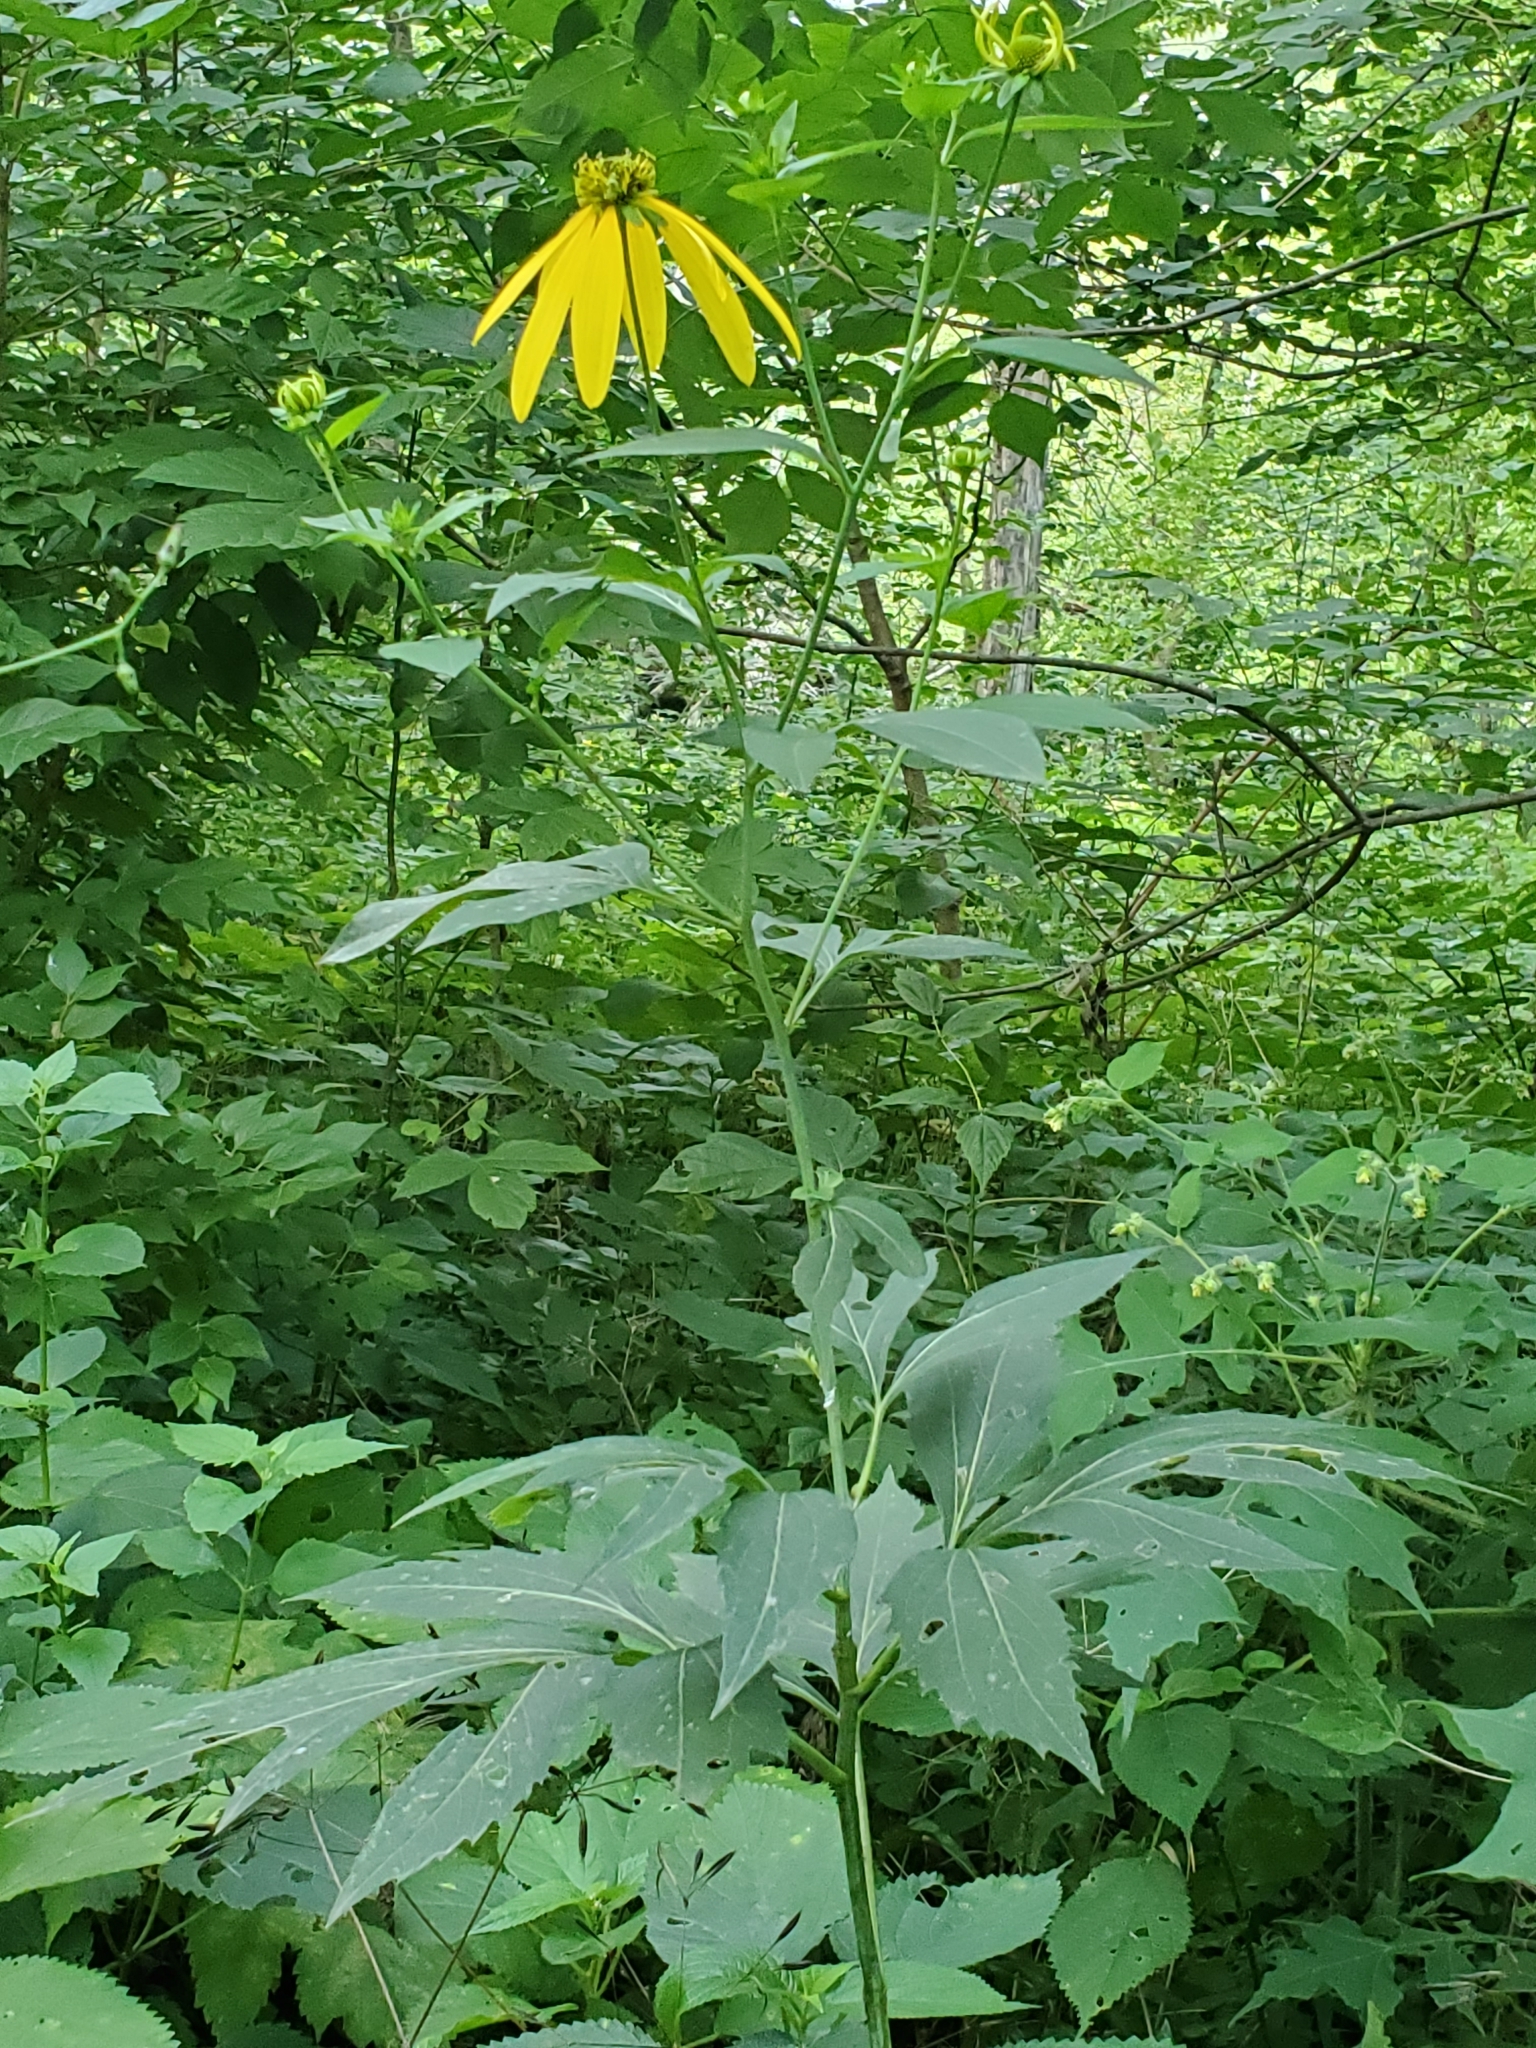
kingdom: Plantae
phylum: Tracheophyta
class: Magnoliopsida
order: Asterales
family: Asteraceae
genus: Rudbeckia
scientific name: Rudbeckia laciniata
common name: Coneflower
